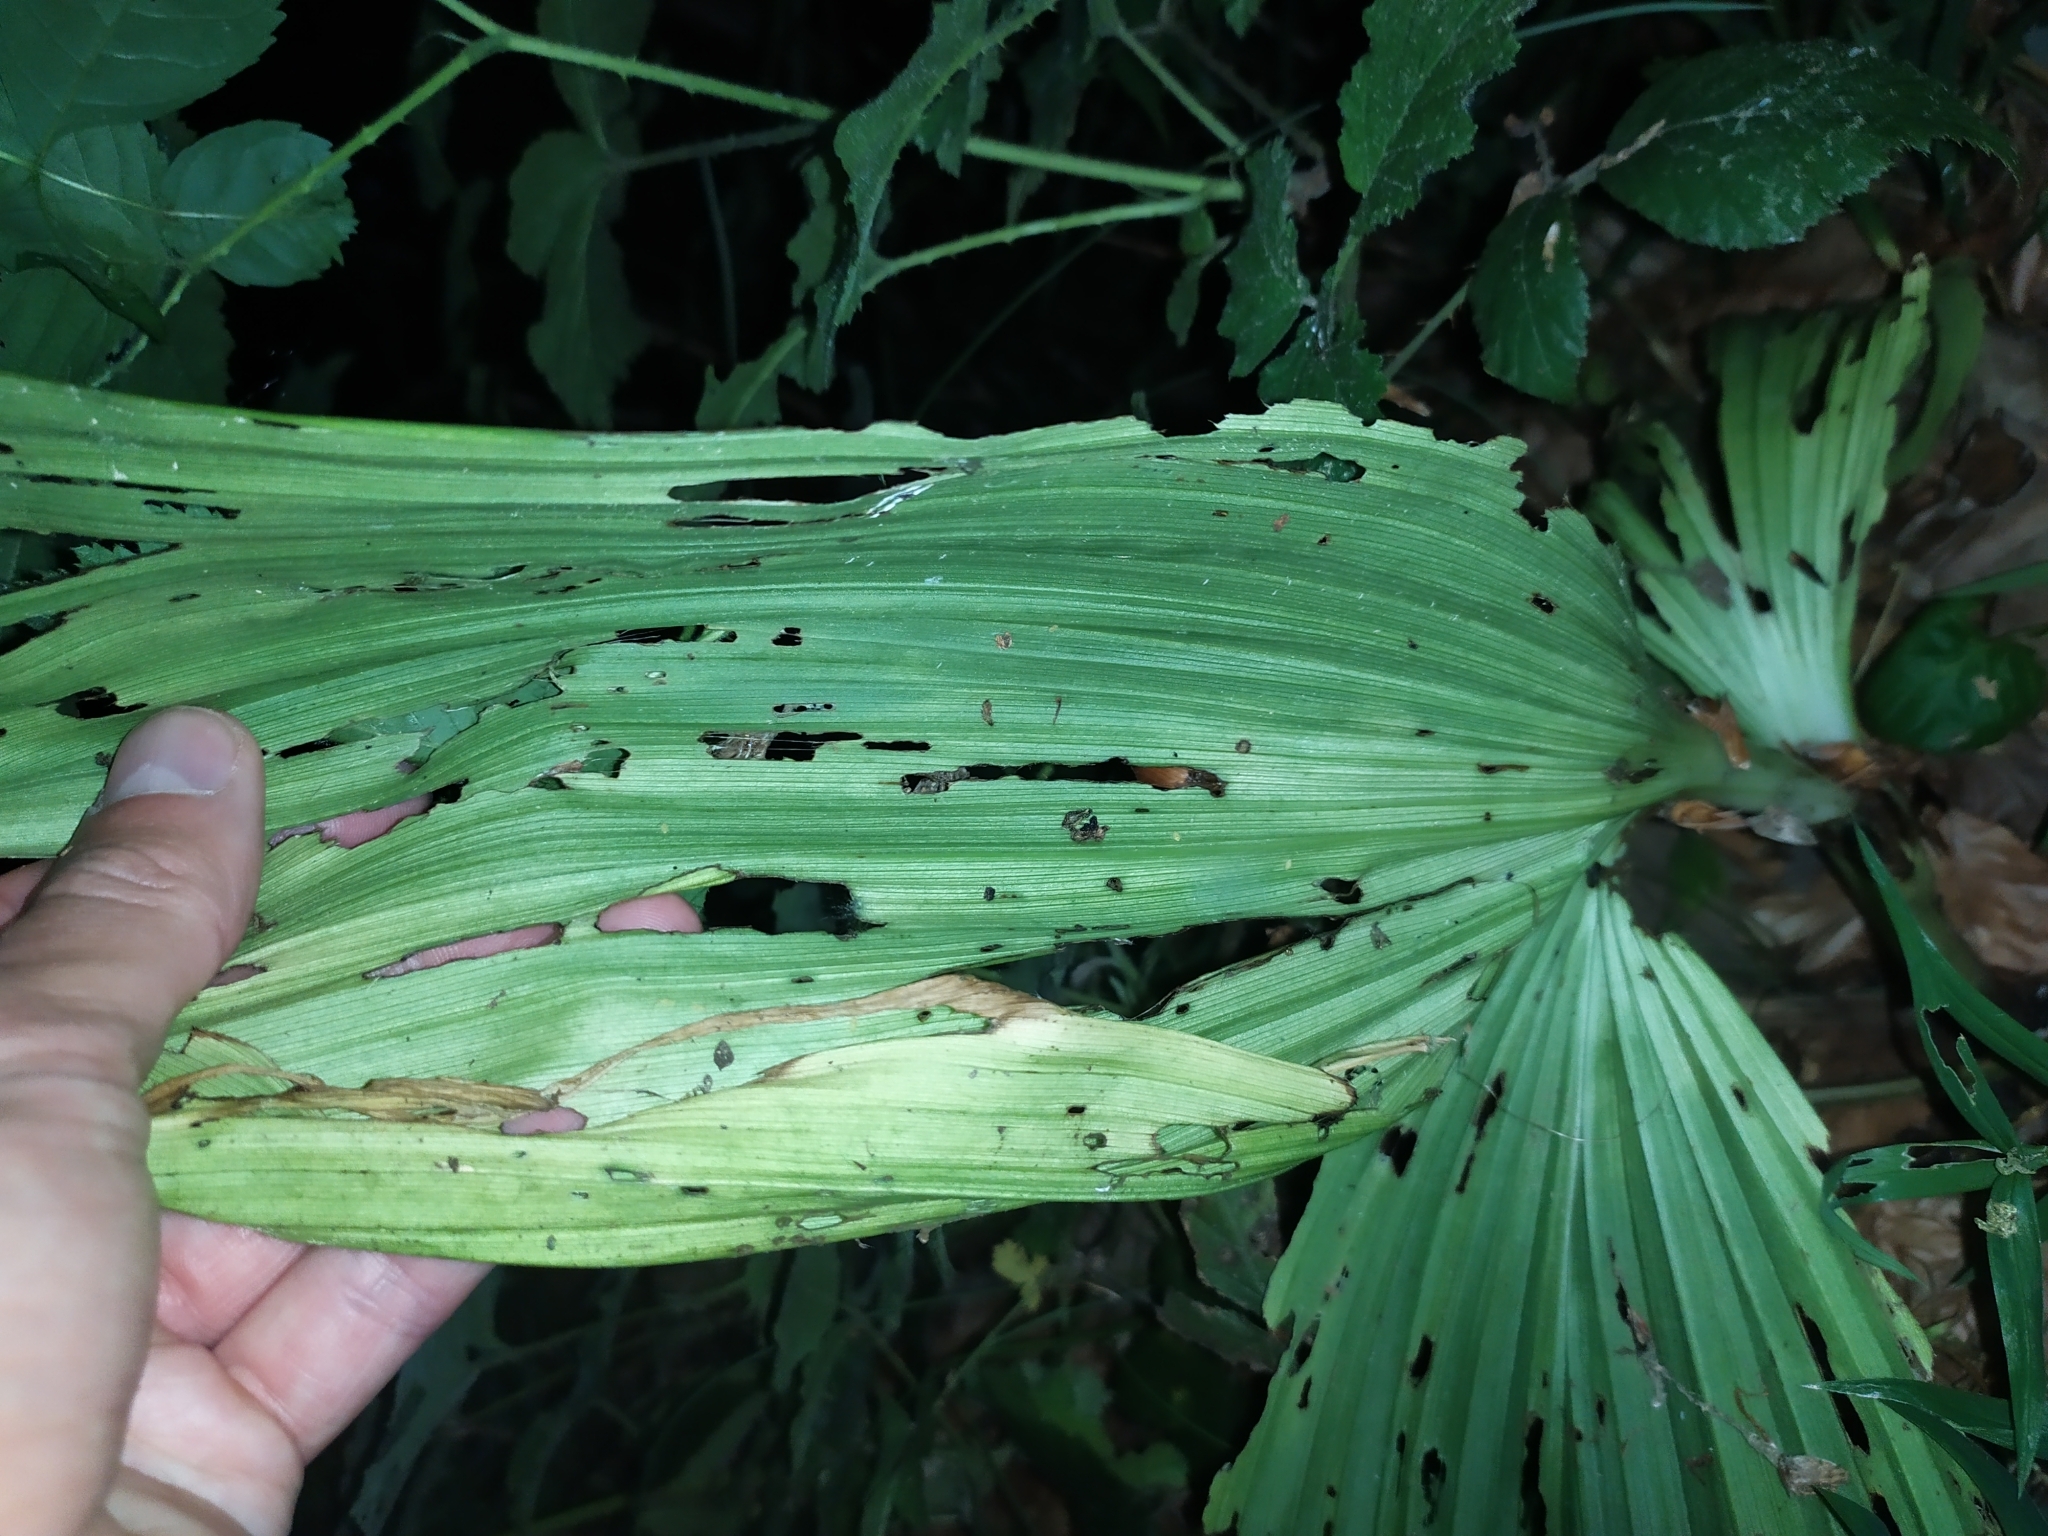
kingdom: Plantae
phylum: Tracheophyta
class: Liliopsida
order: Liliales
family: Melanthiaceae
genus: Veratrum
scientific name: Veratrum nigrum
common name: Black veratrum
